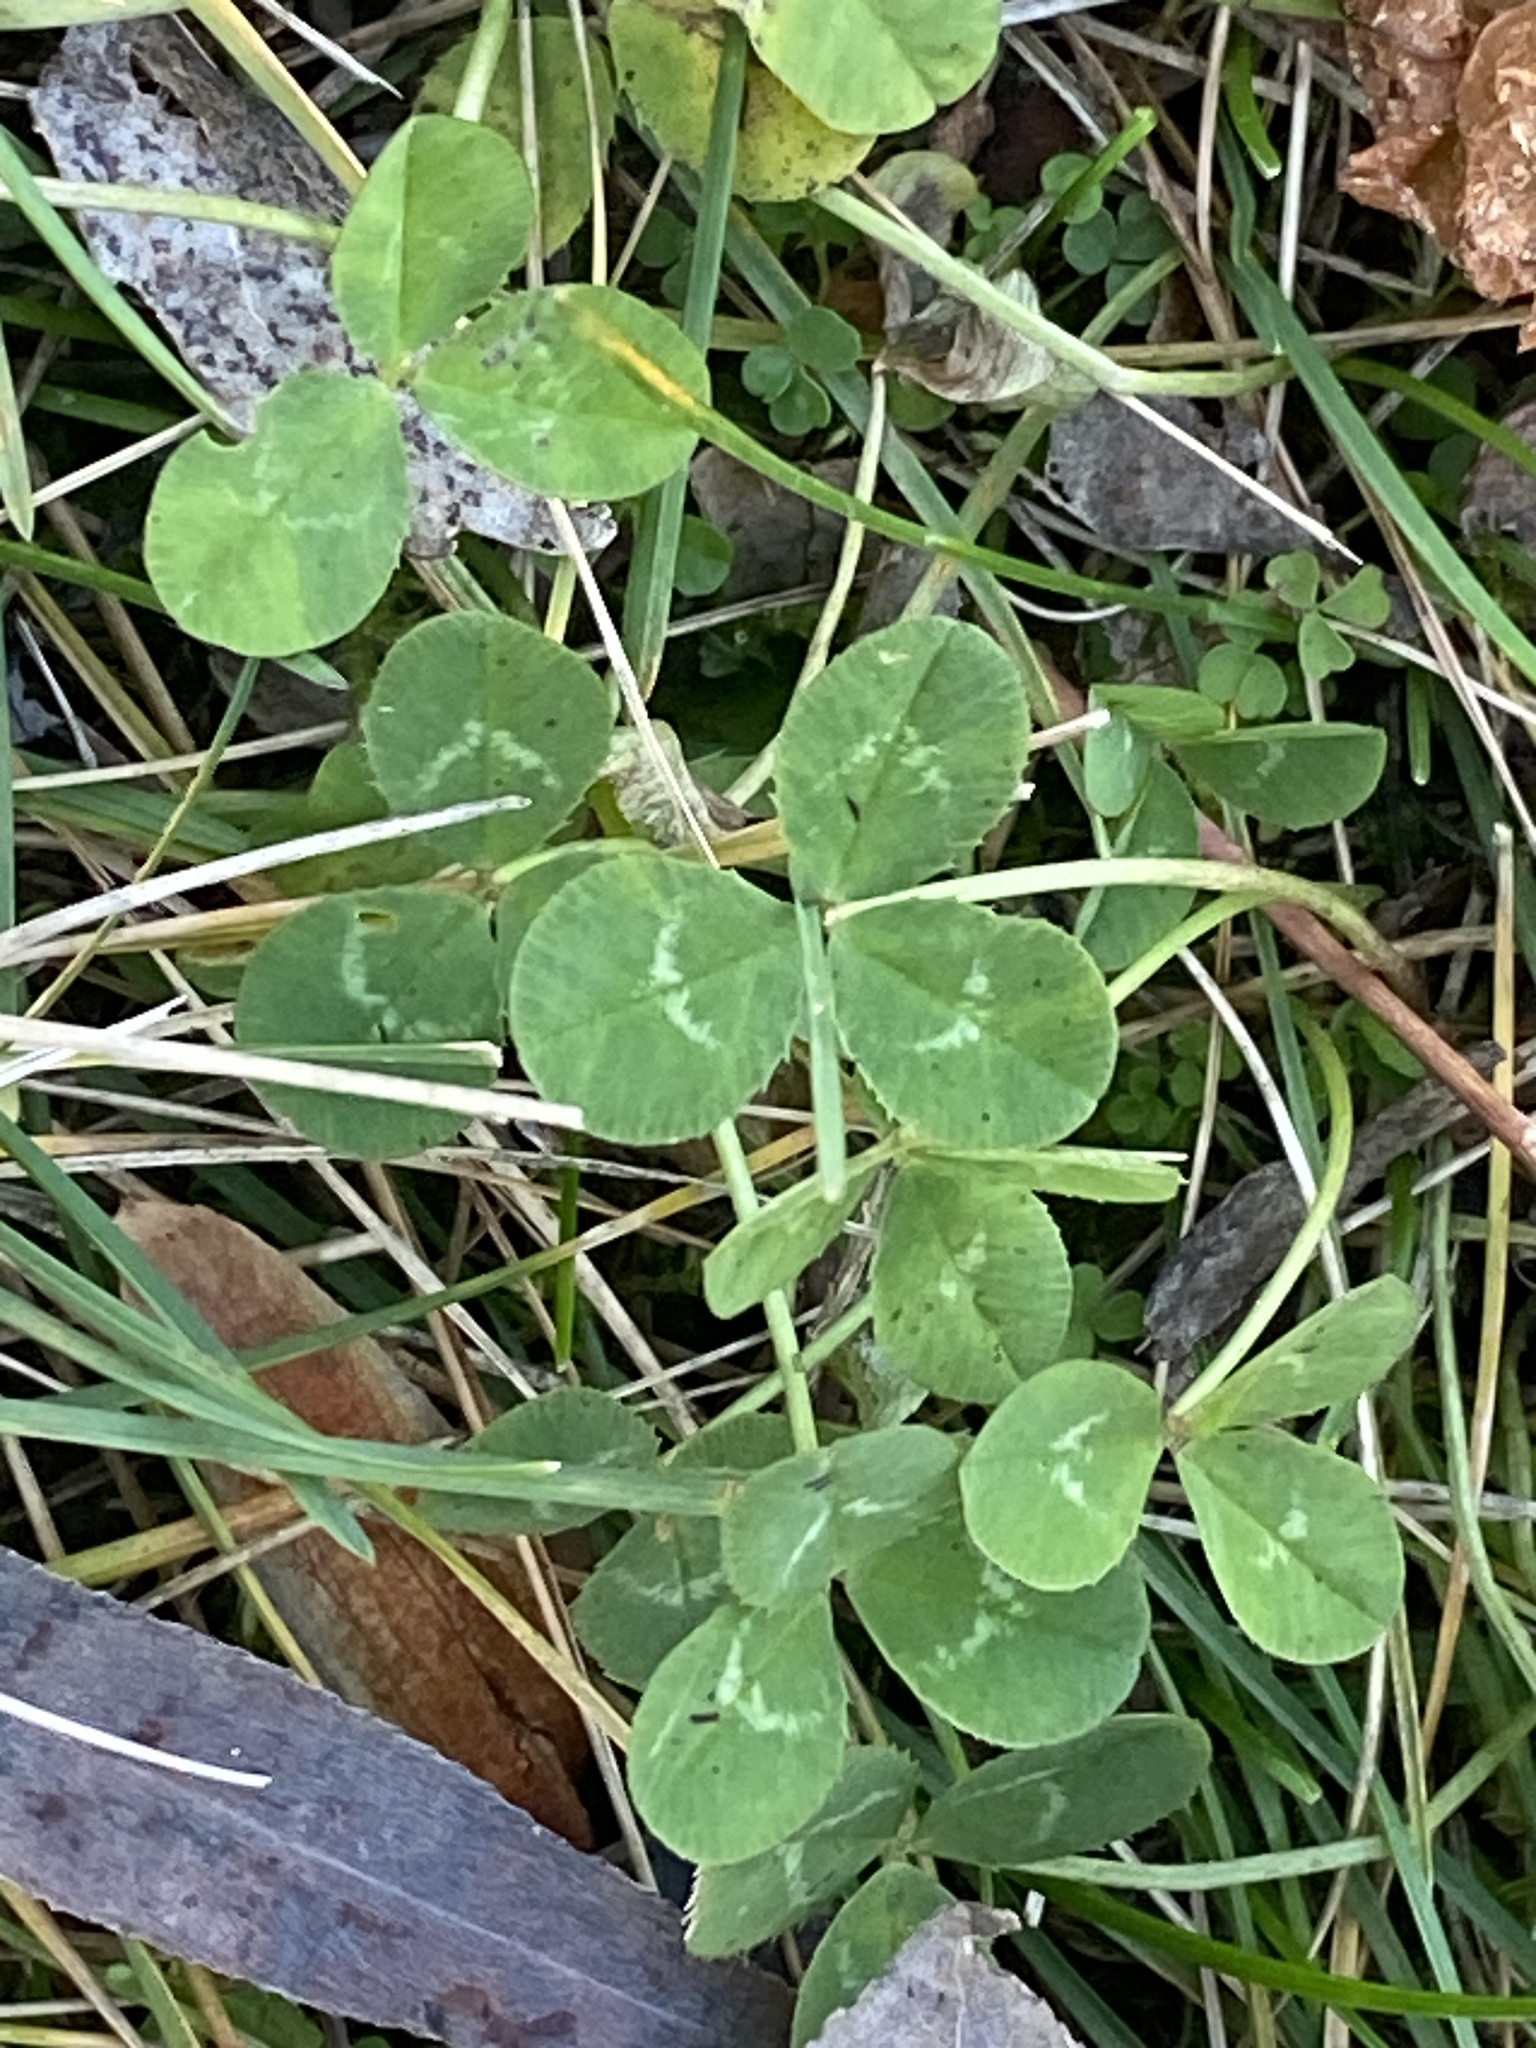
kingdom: Plantae
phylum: Tracheophyta
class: Magnoliopsida
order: Fabales
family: Fabaceae
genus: Trifolium
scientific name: Trifolium repens
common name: White clover
